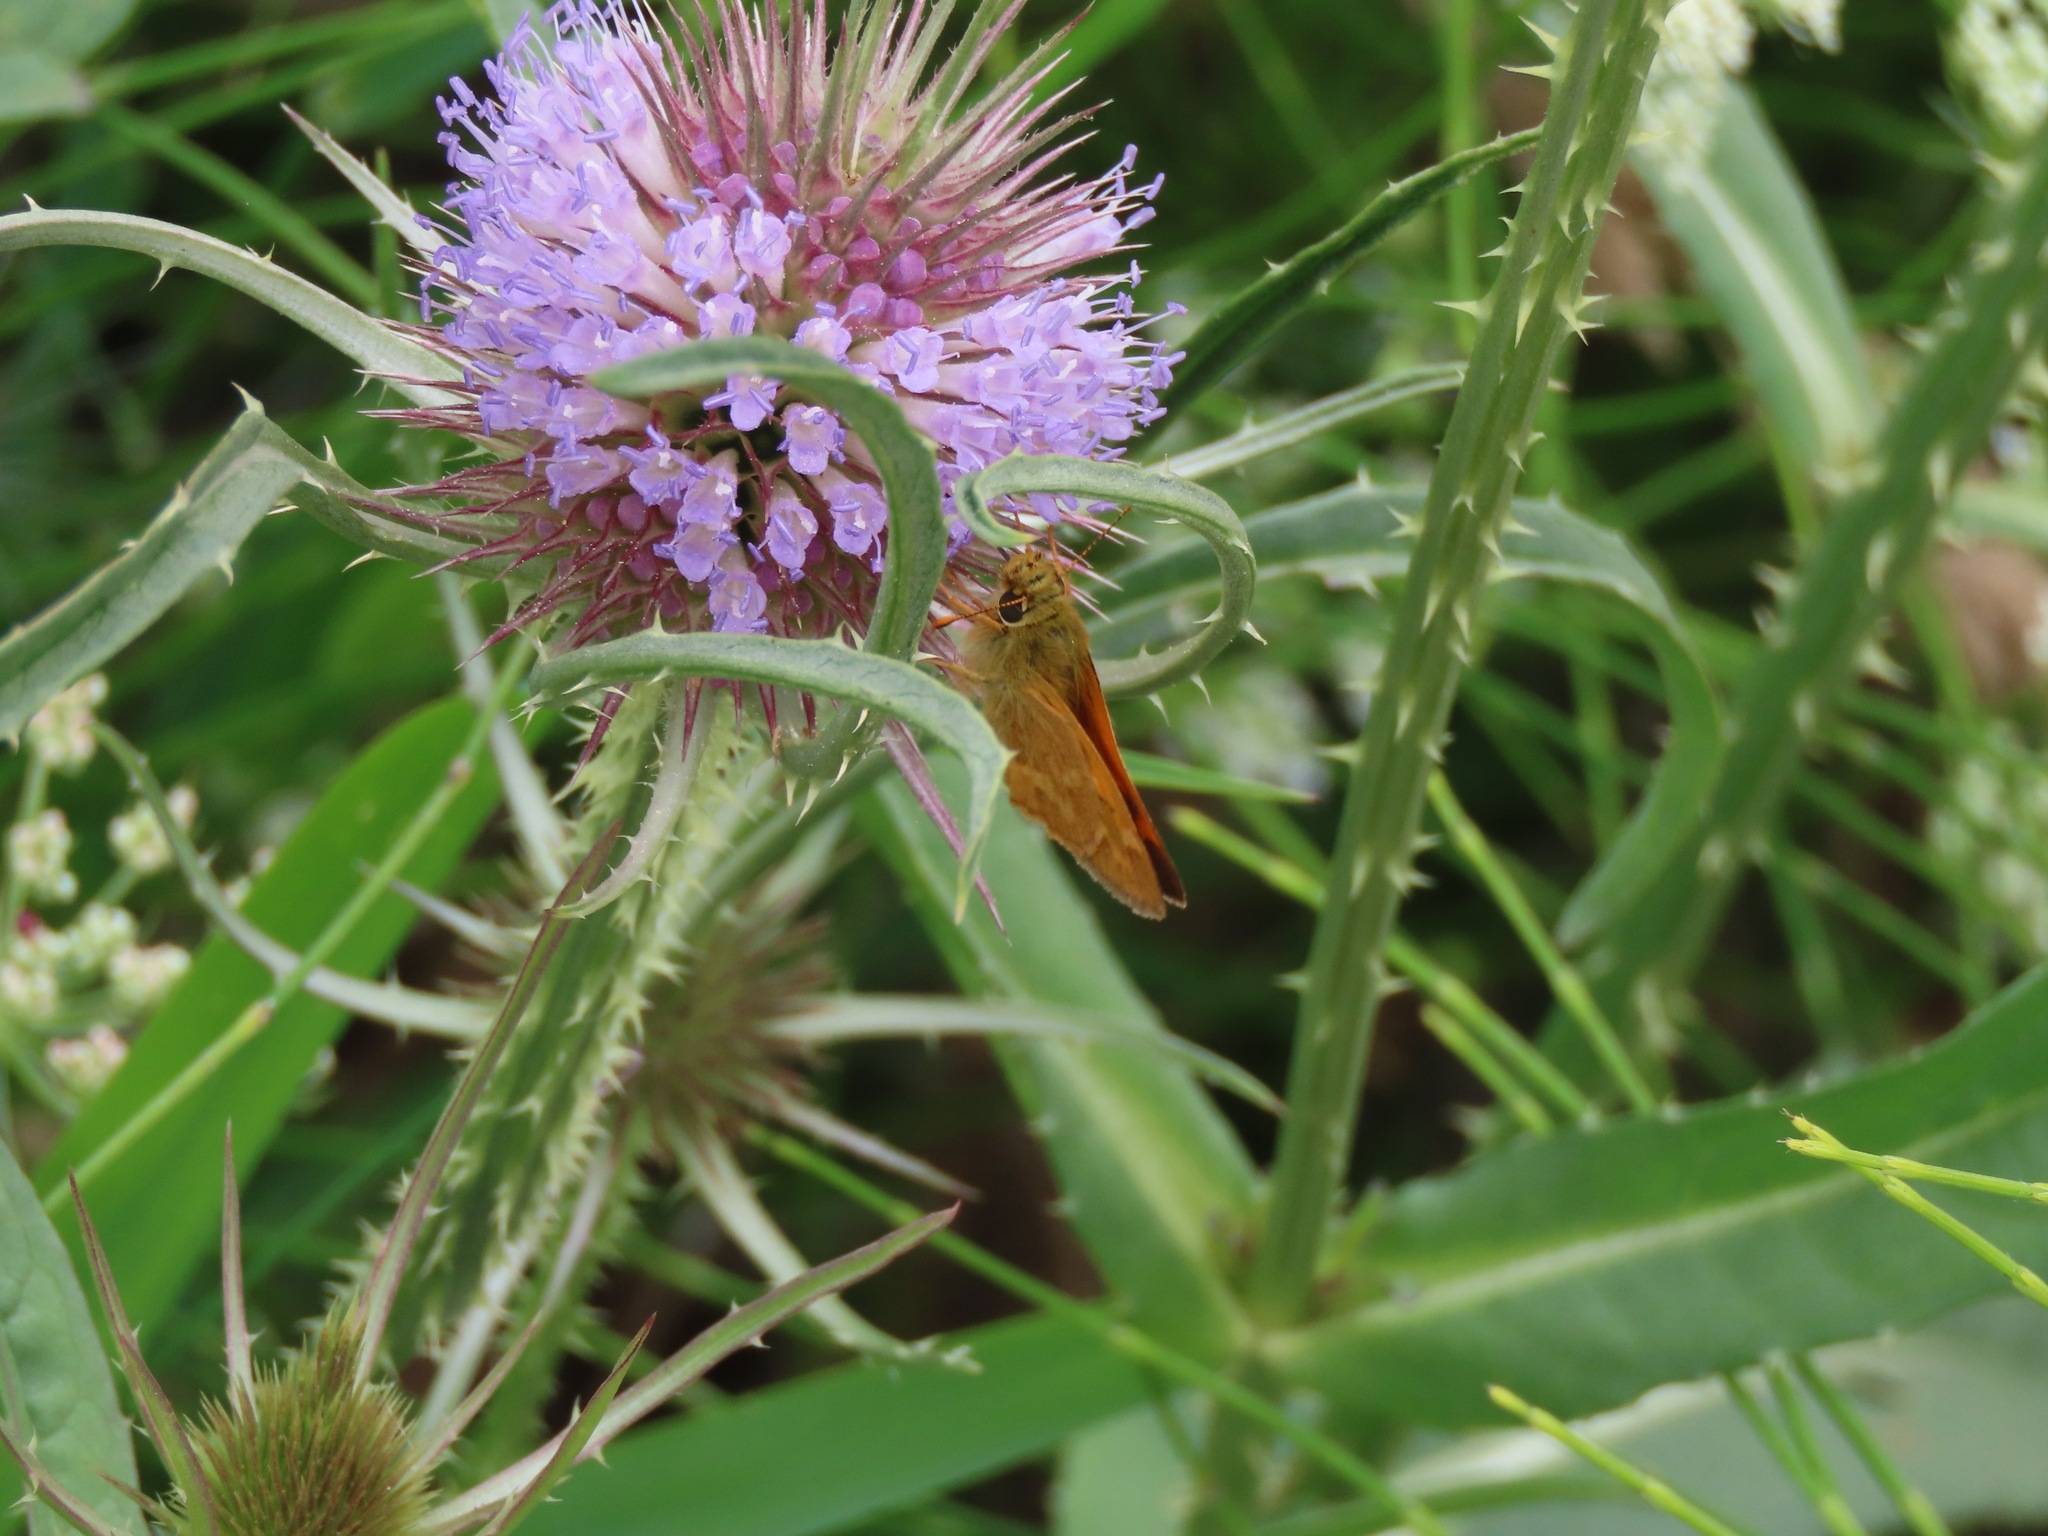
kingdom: Animalia
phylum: Arthropoda
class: Insecta
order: Lepidoptera
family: Hesperiidae
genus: Ochlodes
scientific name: Ochlodes sylvanoides
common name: Woodland skipper
